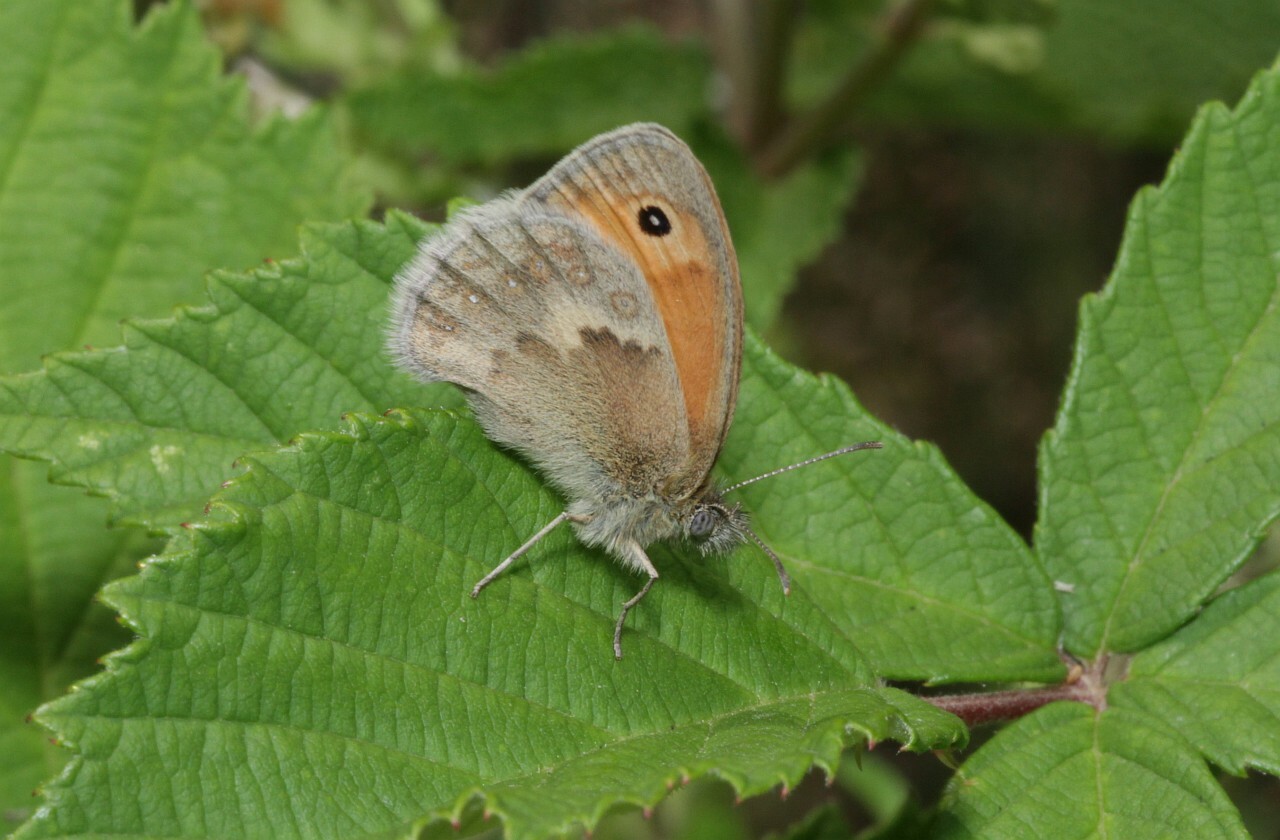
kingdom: Animalia
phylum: Arthropoda
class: Insecta
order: Lepidoptera
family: Nymphalidae
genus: Coenonympha
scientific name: Coenonympha pamphilus
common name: Small heath
